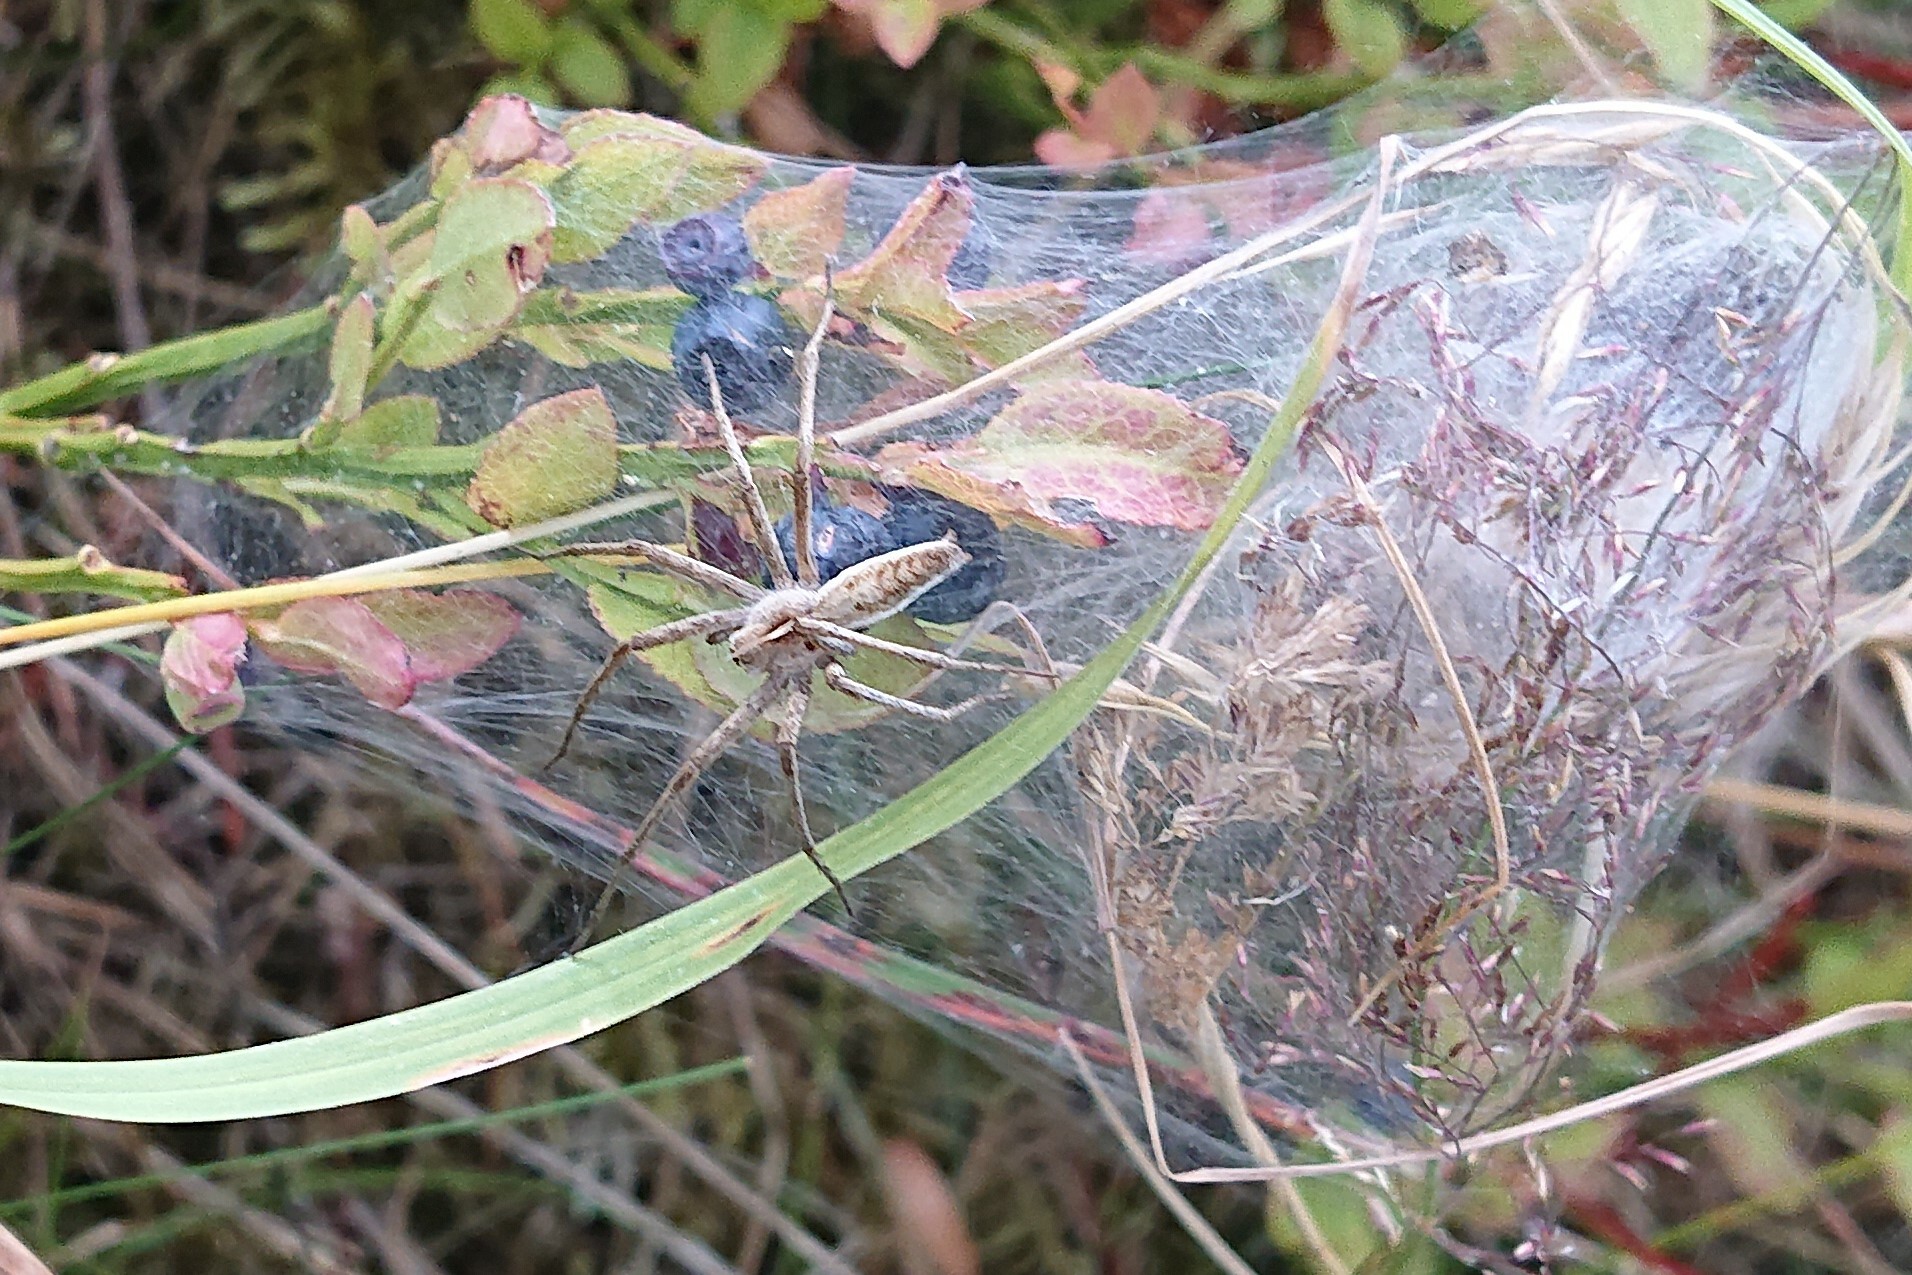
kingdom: Animalia
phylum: Arthropoda
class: Arachnida
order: Araneae
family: Pisauridae
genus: Pisaura
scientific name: Pisaura mirabilis
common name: Tent spider
